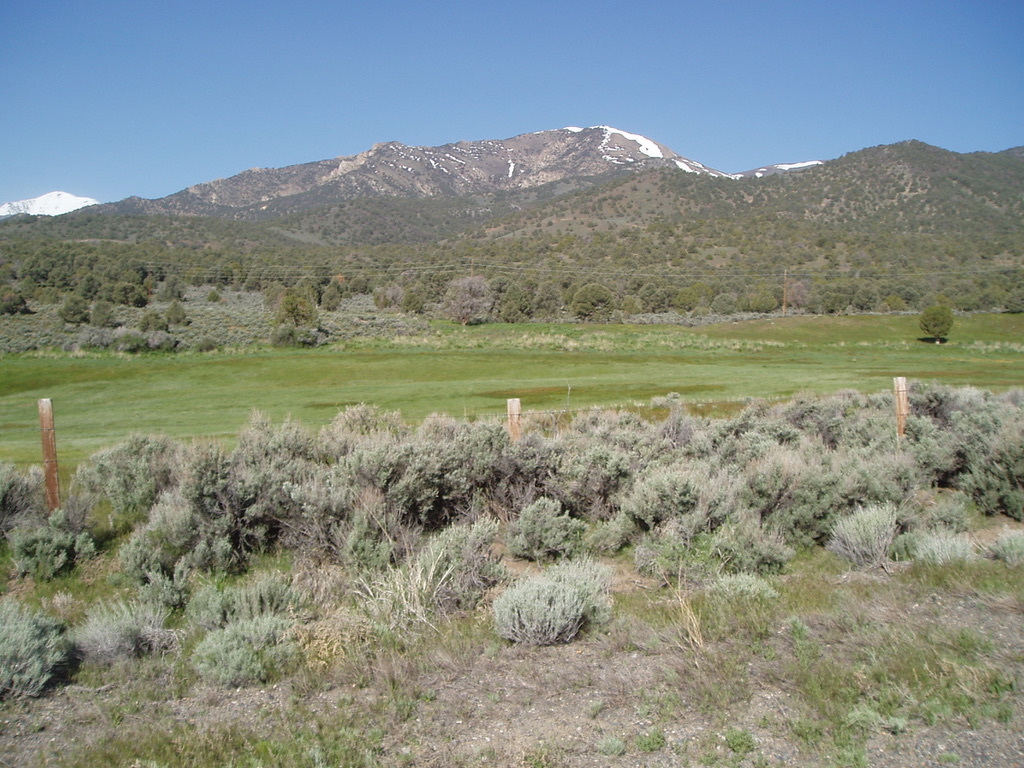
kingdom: Plantae
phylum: Tracheophyta
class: Magnoliopsida
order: Asterales
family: Asteraceae
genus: Artemisia
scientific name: Artemisia tridentata
